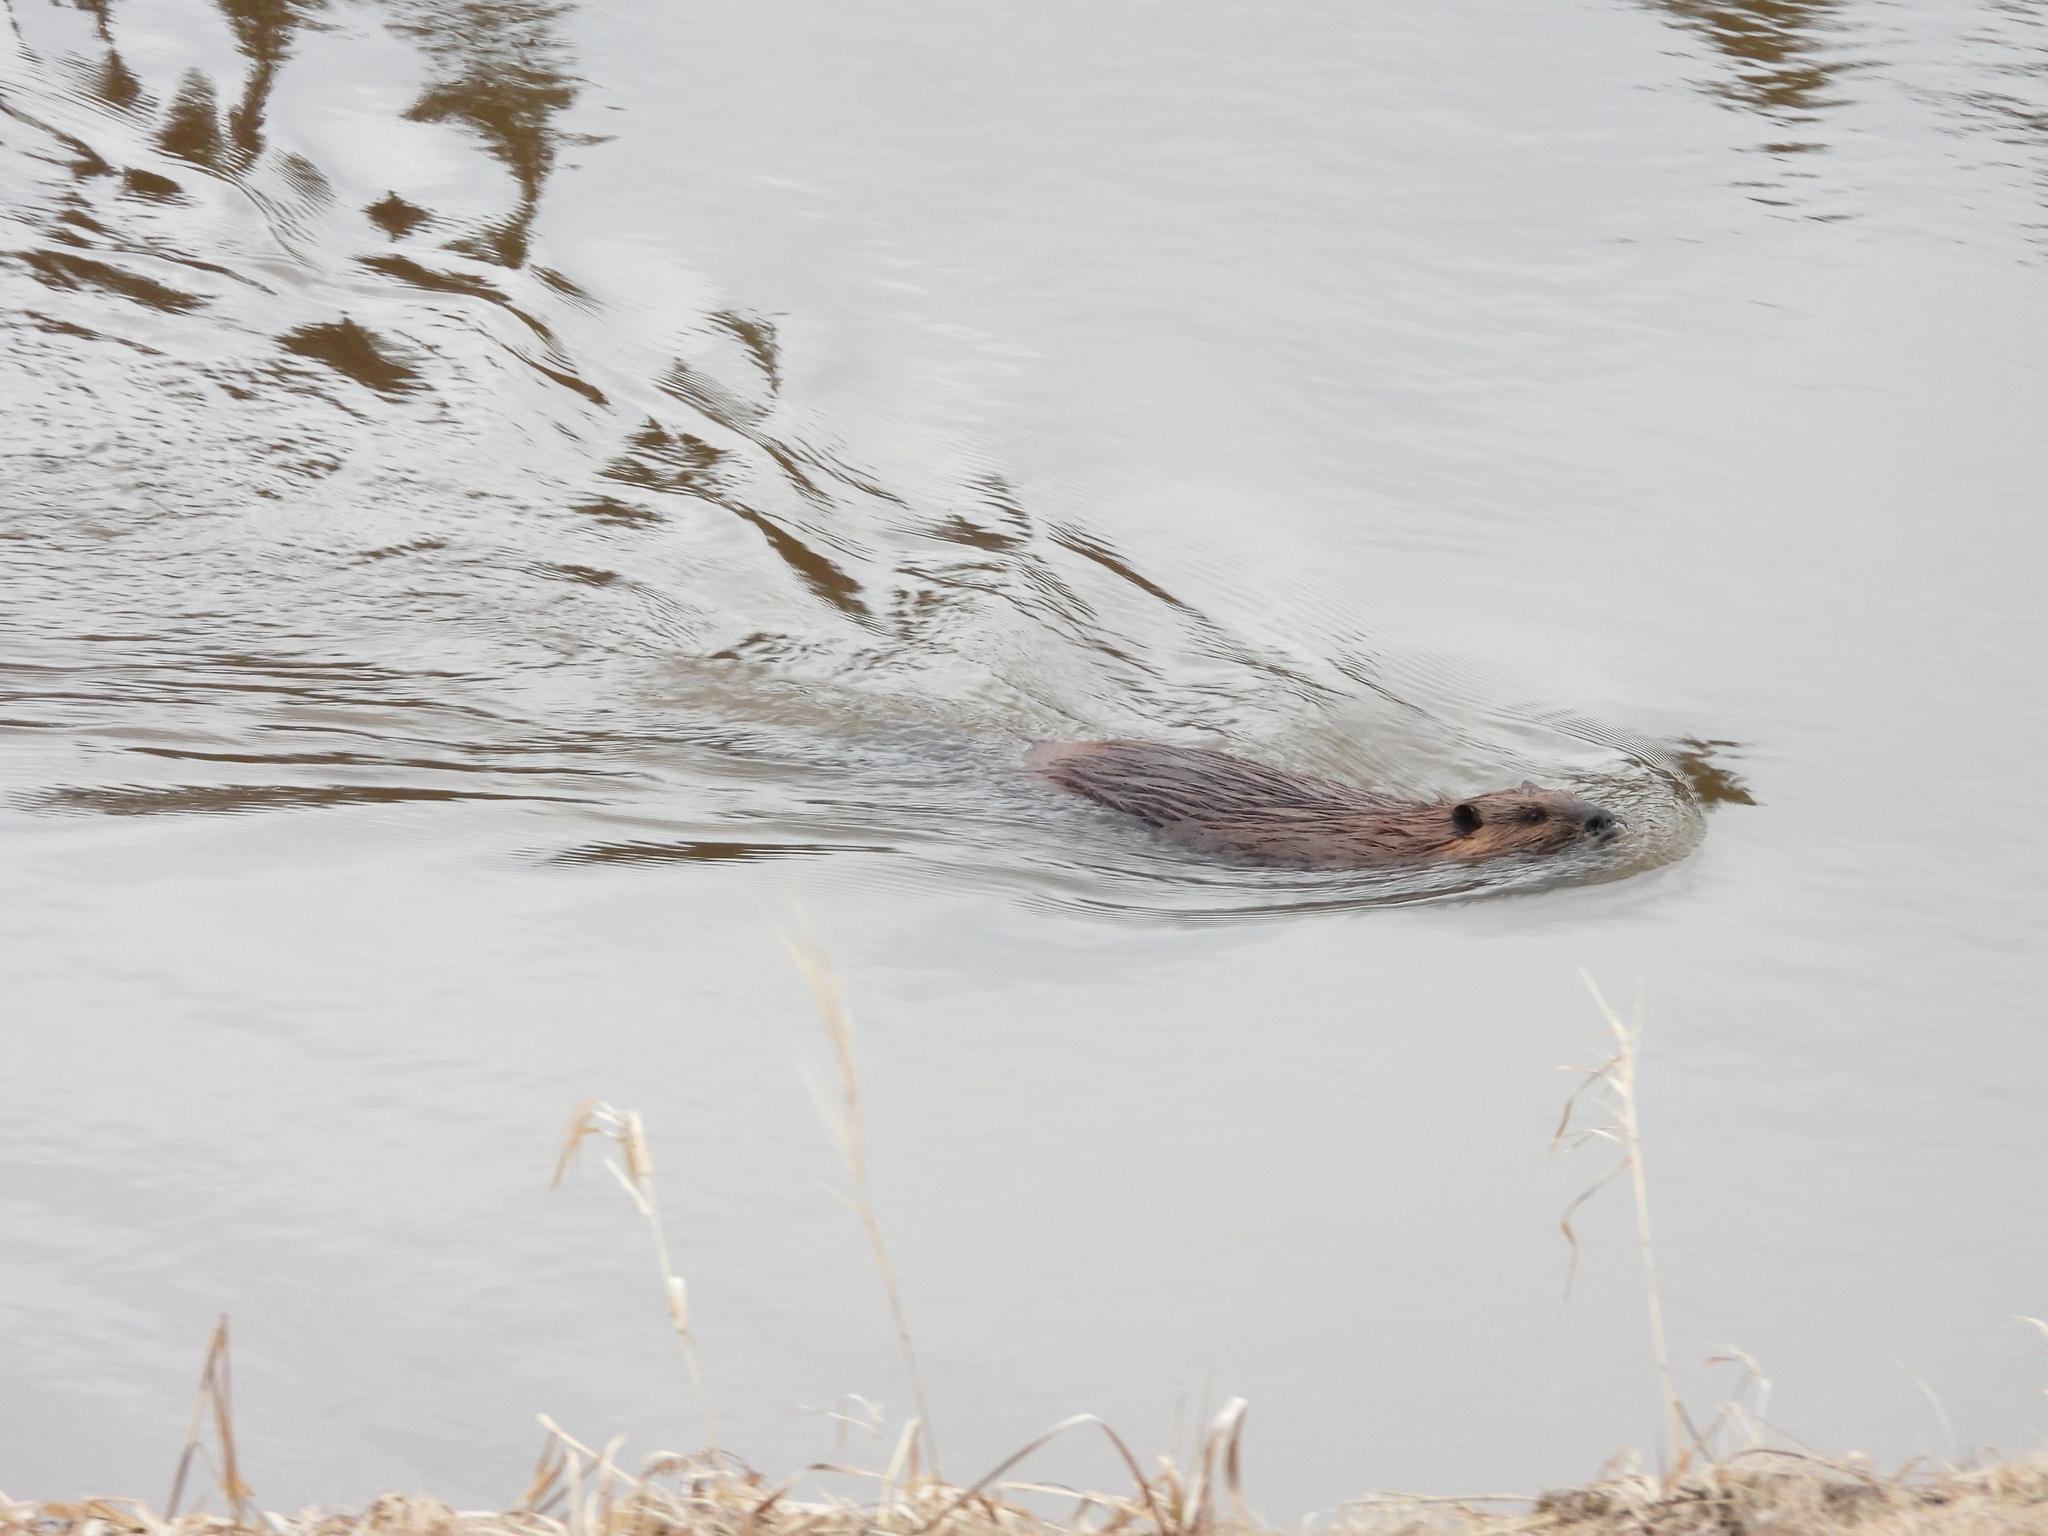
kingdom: Animalia
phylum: Chordata
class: Mammalia
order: Rodentia
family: Castoridae
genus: Castor
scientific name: Castor canadensis
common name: American beaver
